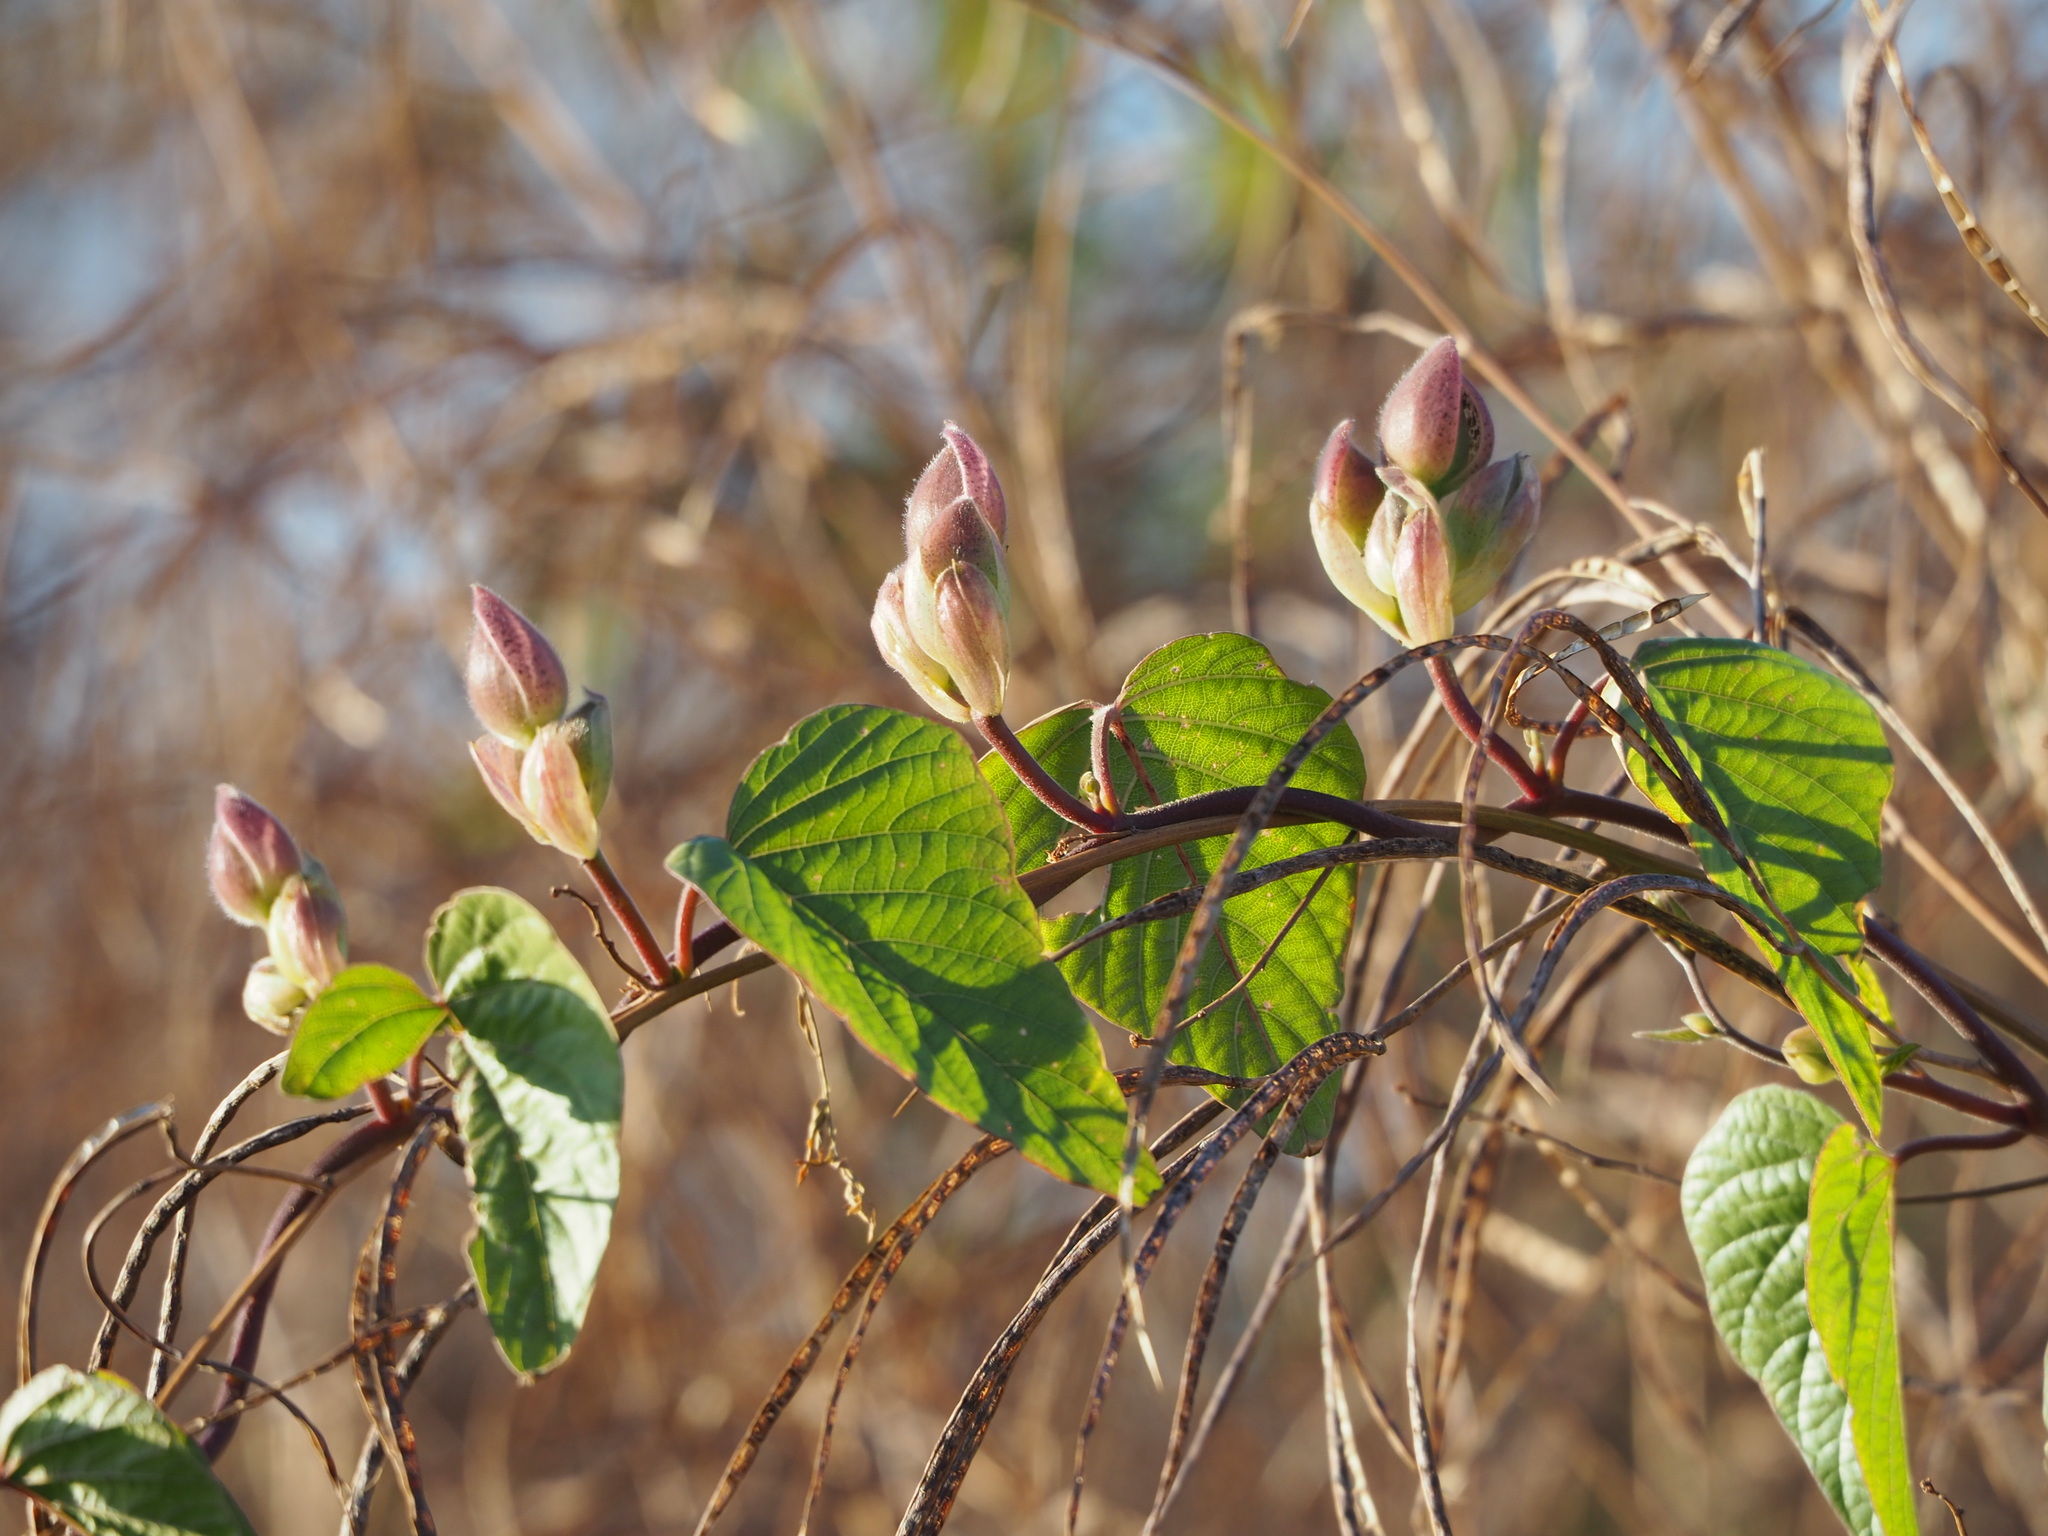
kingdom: Plantae
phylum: Tracheophyta
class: Magnoliopsida
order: Solanales
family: Convolvulaceae
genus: Operculina
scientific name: Operculina turpethum
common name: Transparent wood-rose
